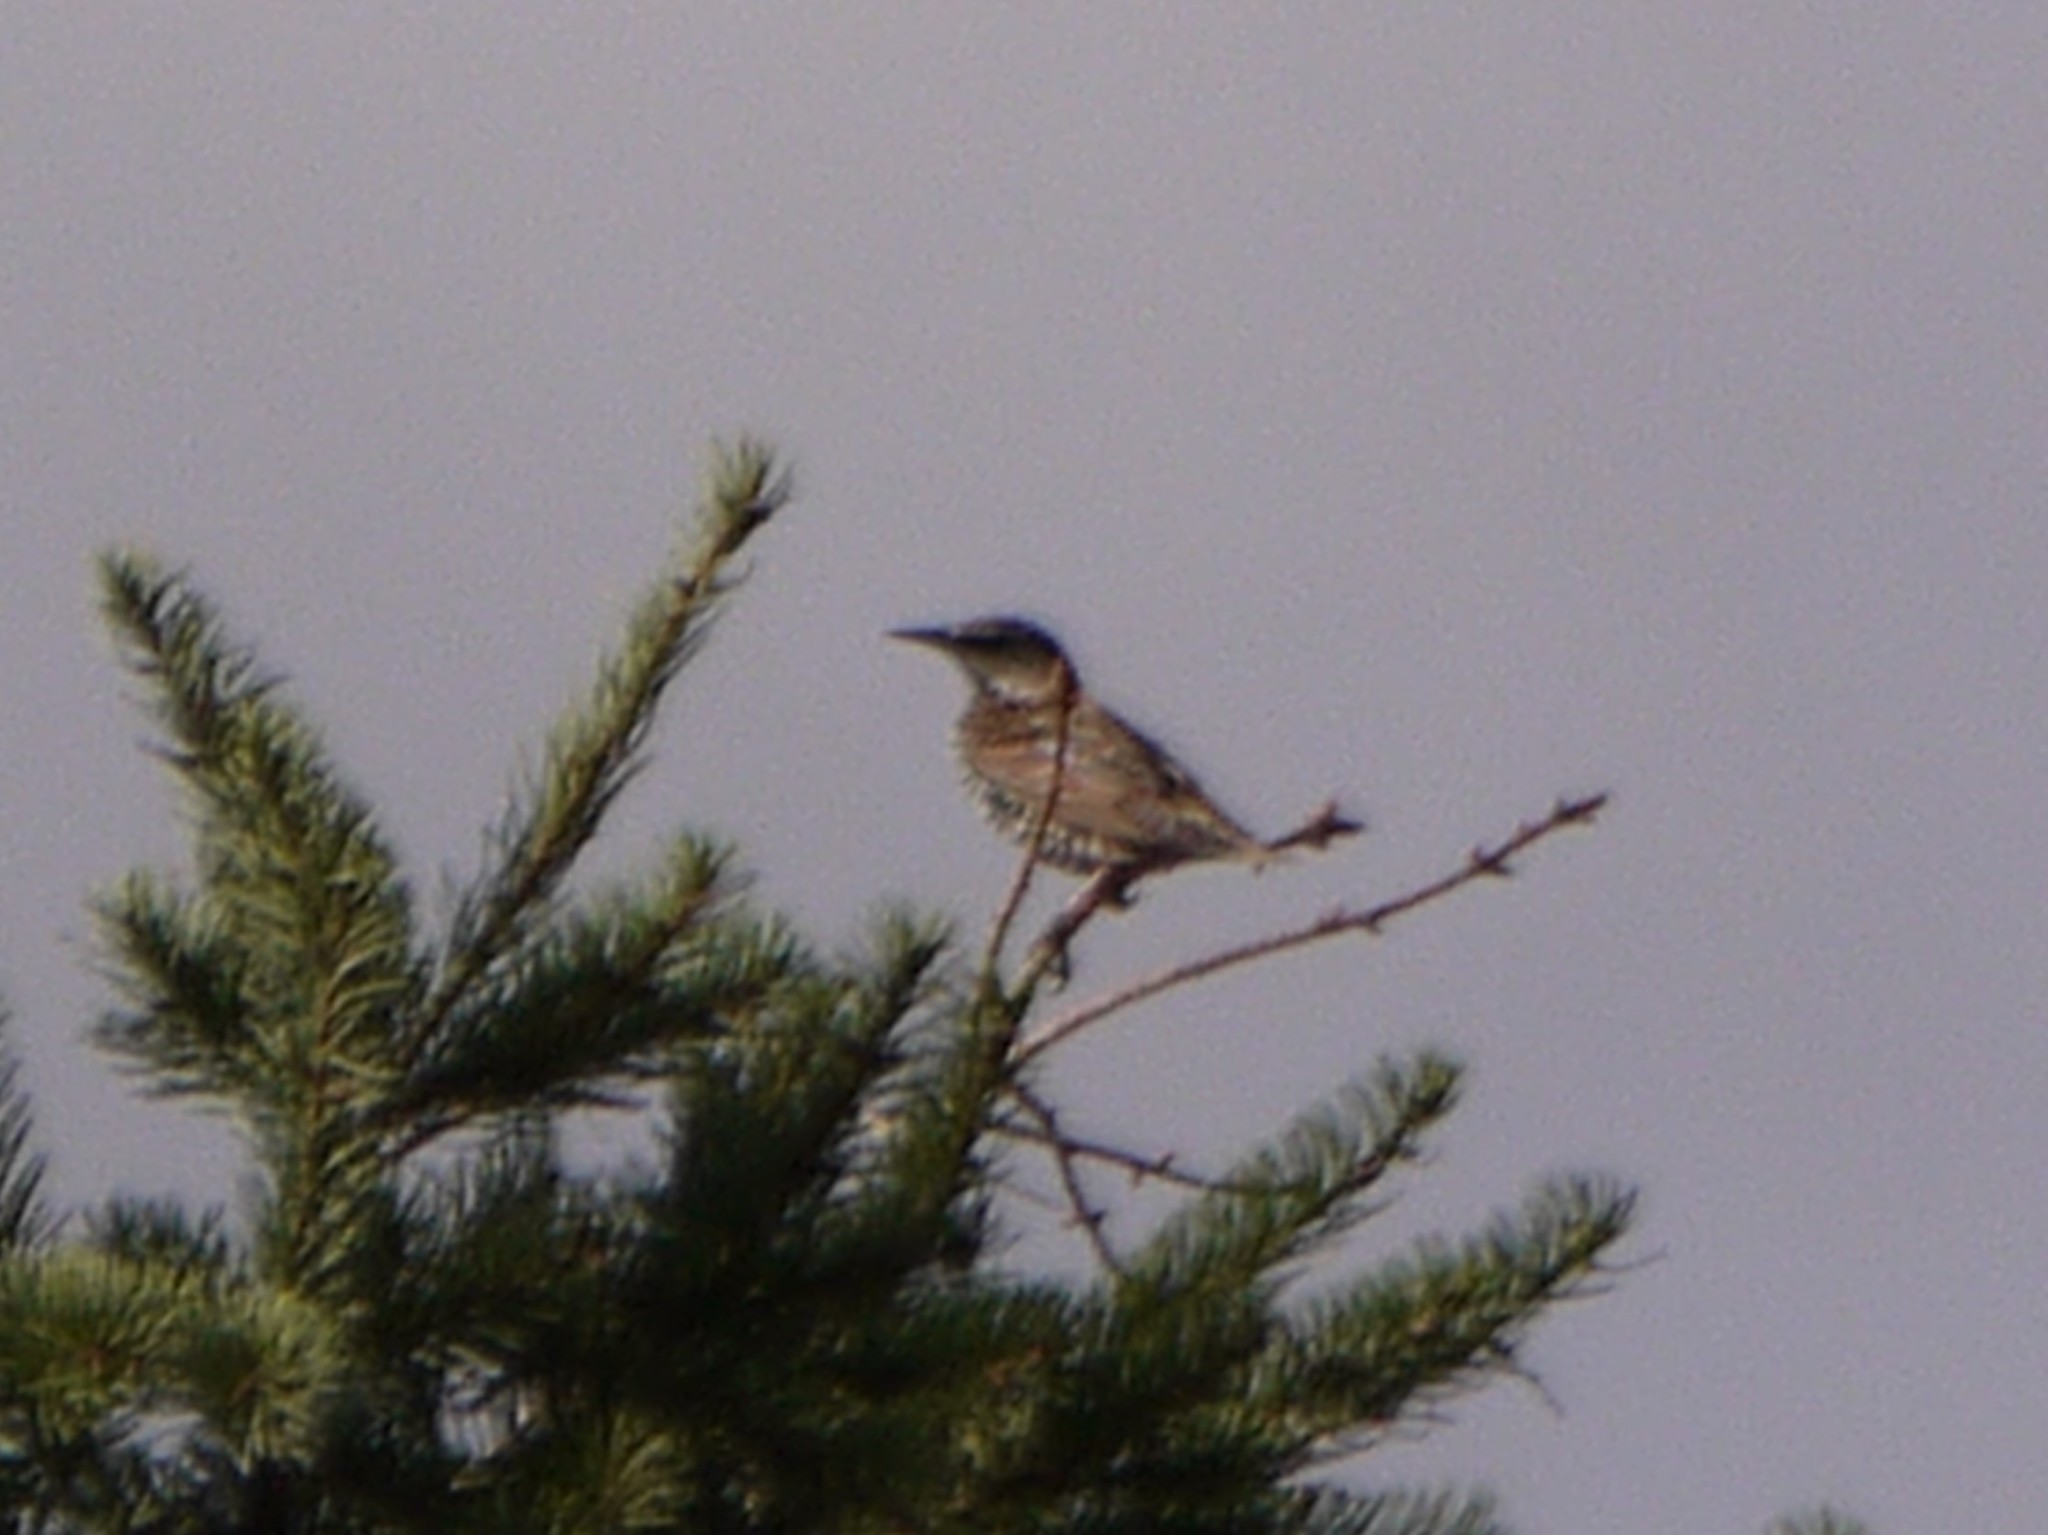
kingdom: Animalia
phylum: Chordata
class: Aves
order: Passeriformes
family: Sturnidae
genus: Sturnus
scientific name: Sturnus vulgaris
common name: Common starling
